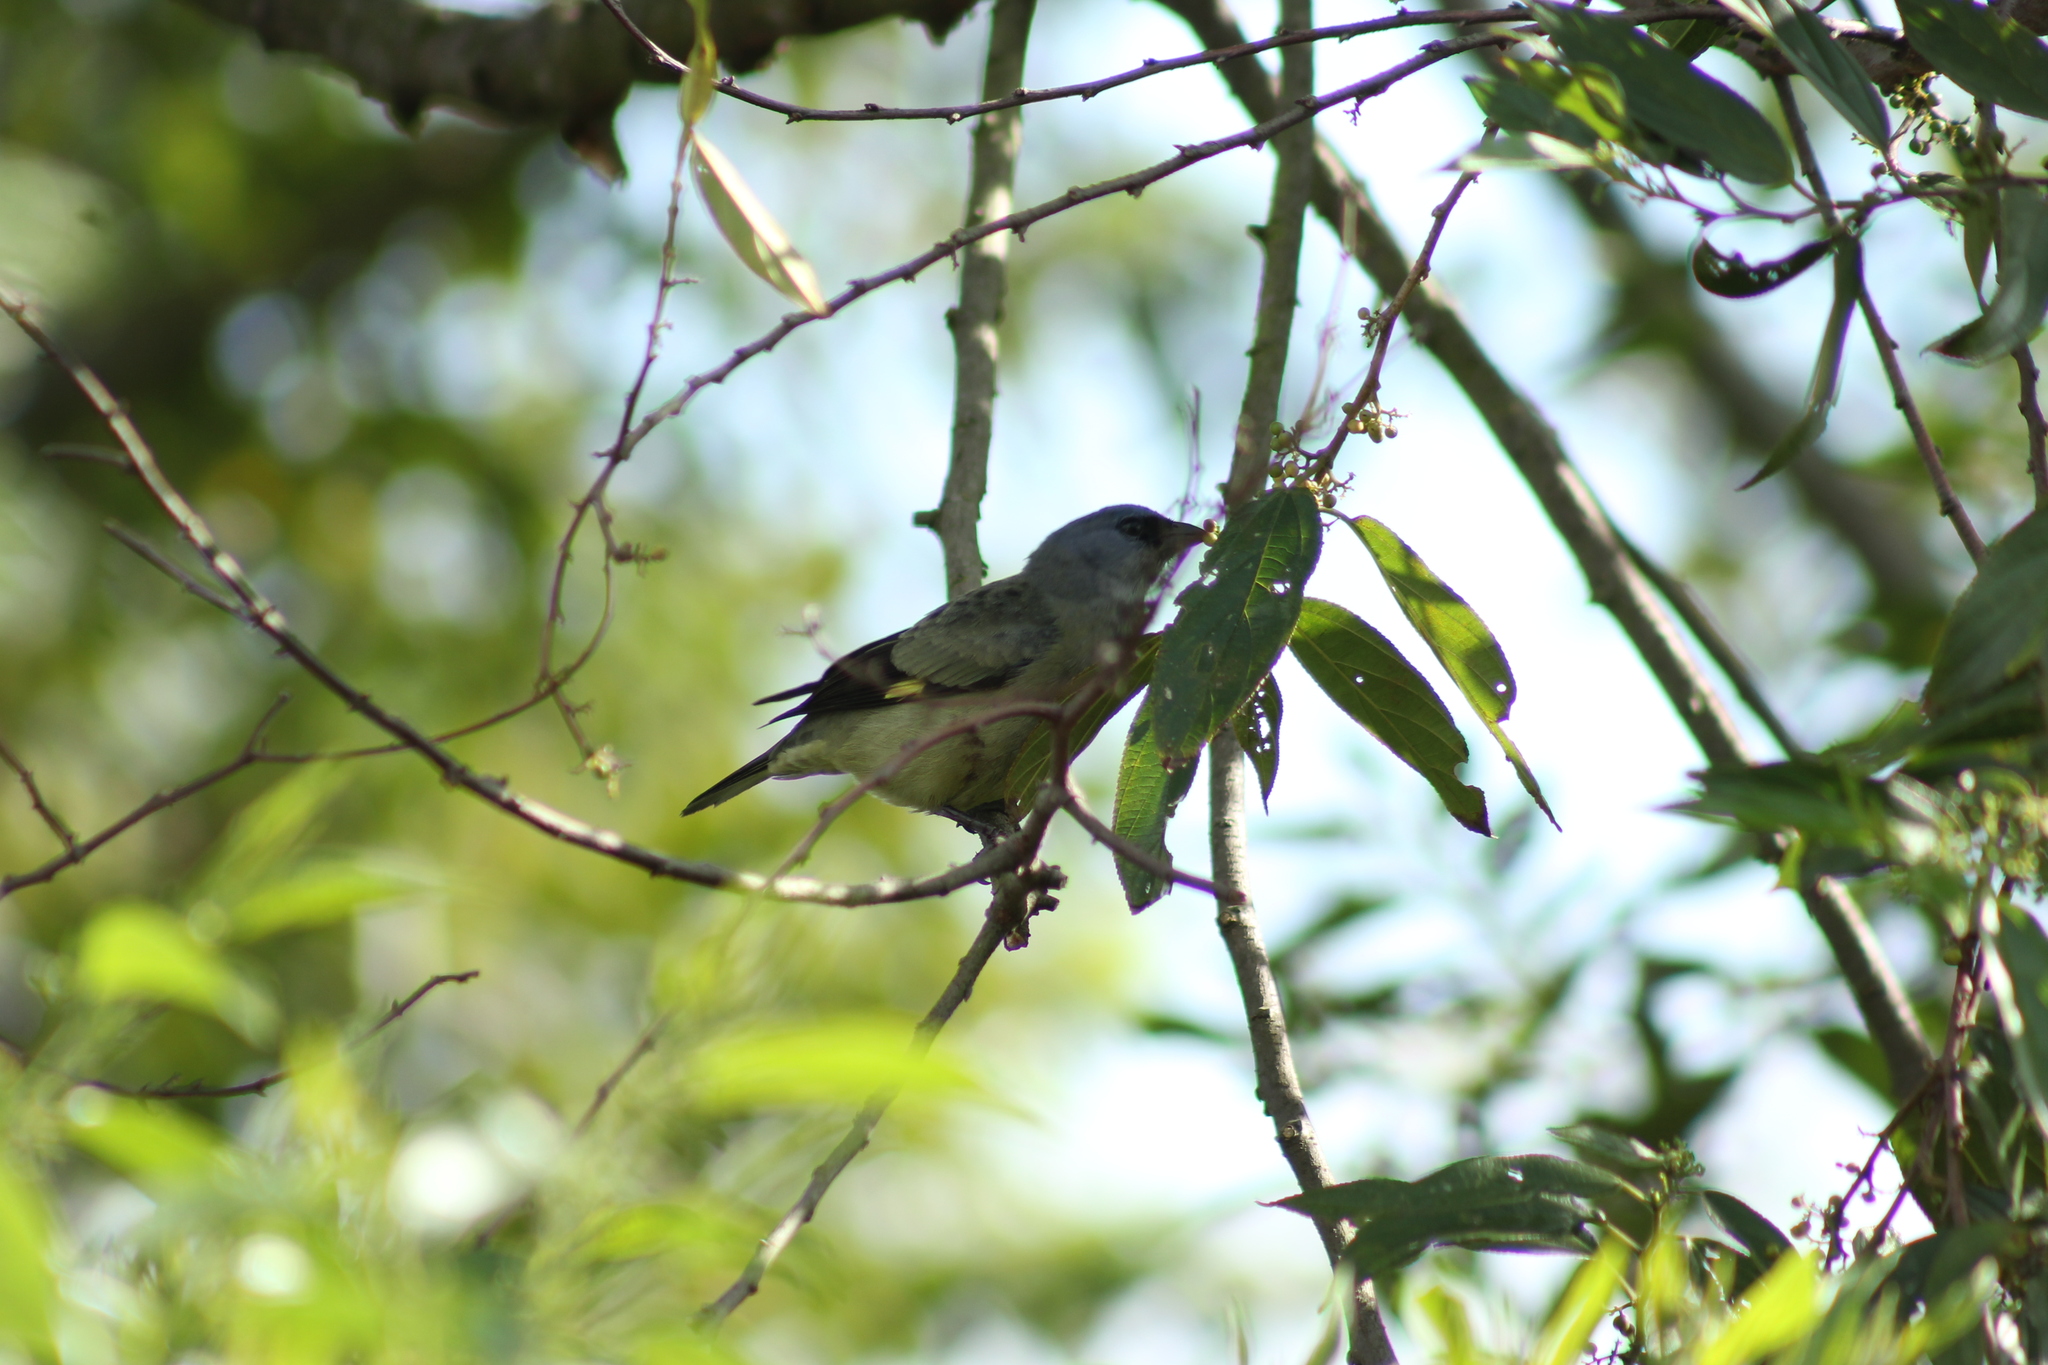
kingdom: Animalia
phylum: Chordata
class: Aves
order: Passeriformes
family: Thraupidae
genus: Thraupis
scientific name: Thraupis abbas
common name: Yellow-winged tanager
